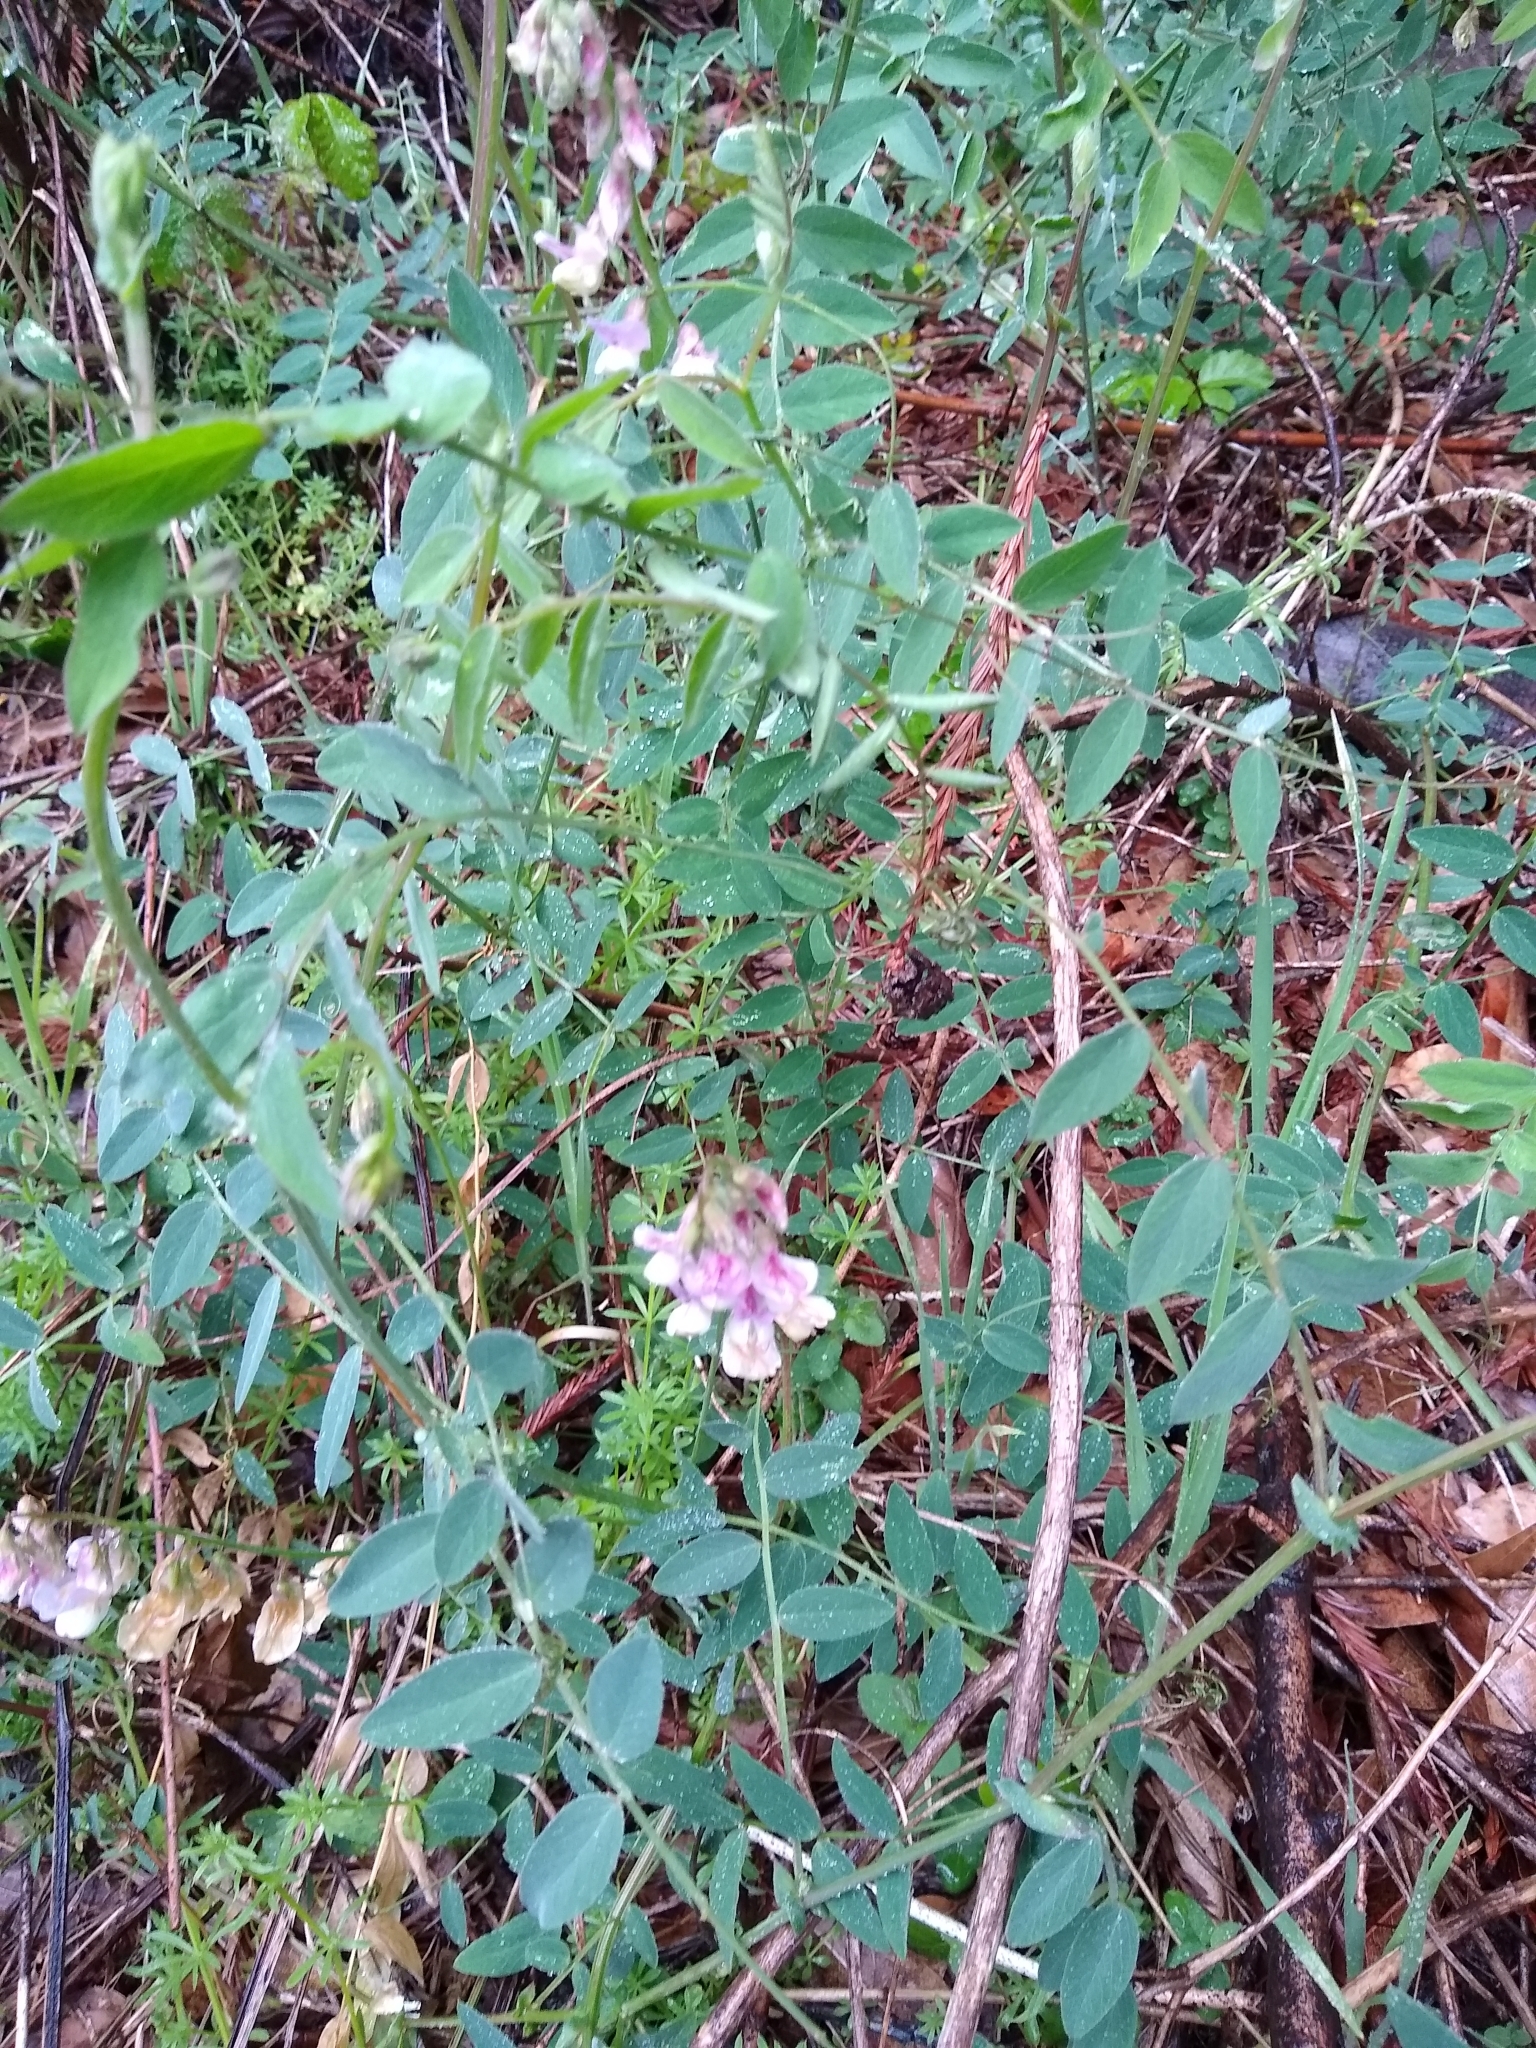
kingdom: Plantae
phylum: Tracheophyta
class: Magnoliopsida
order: Fabales
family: Fabaceae
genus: Lathyrus
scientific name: Lathyrus vestitus
